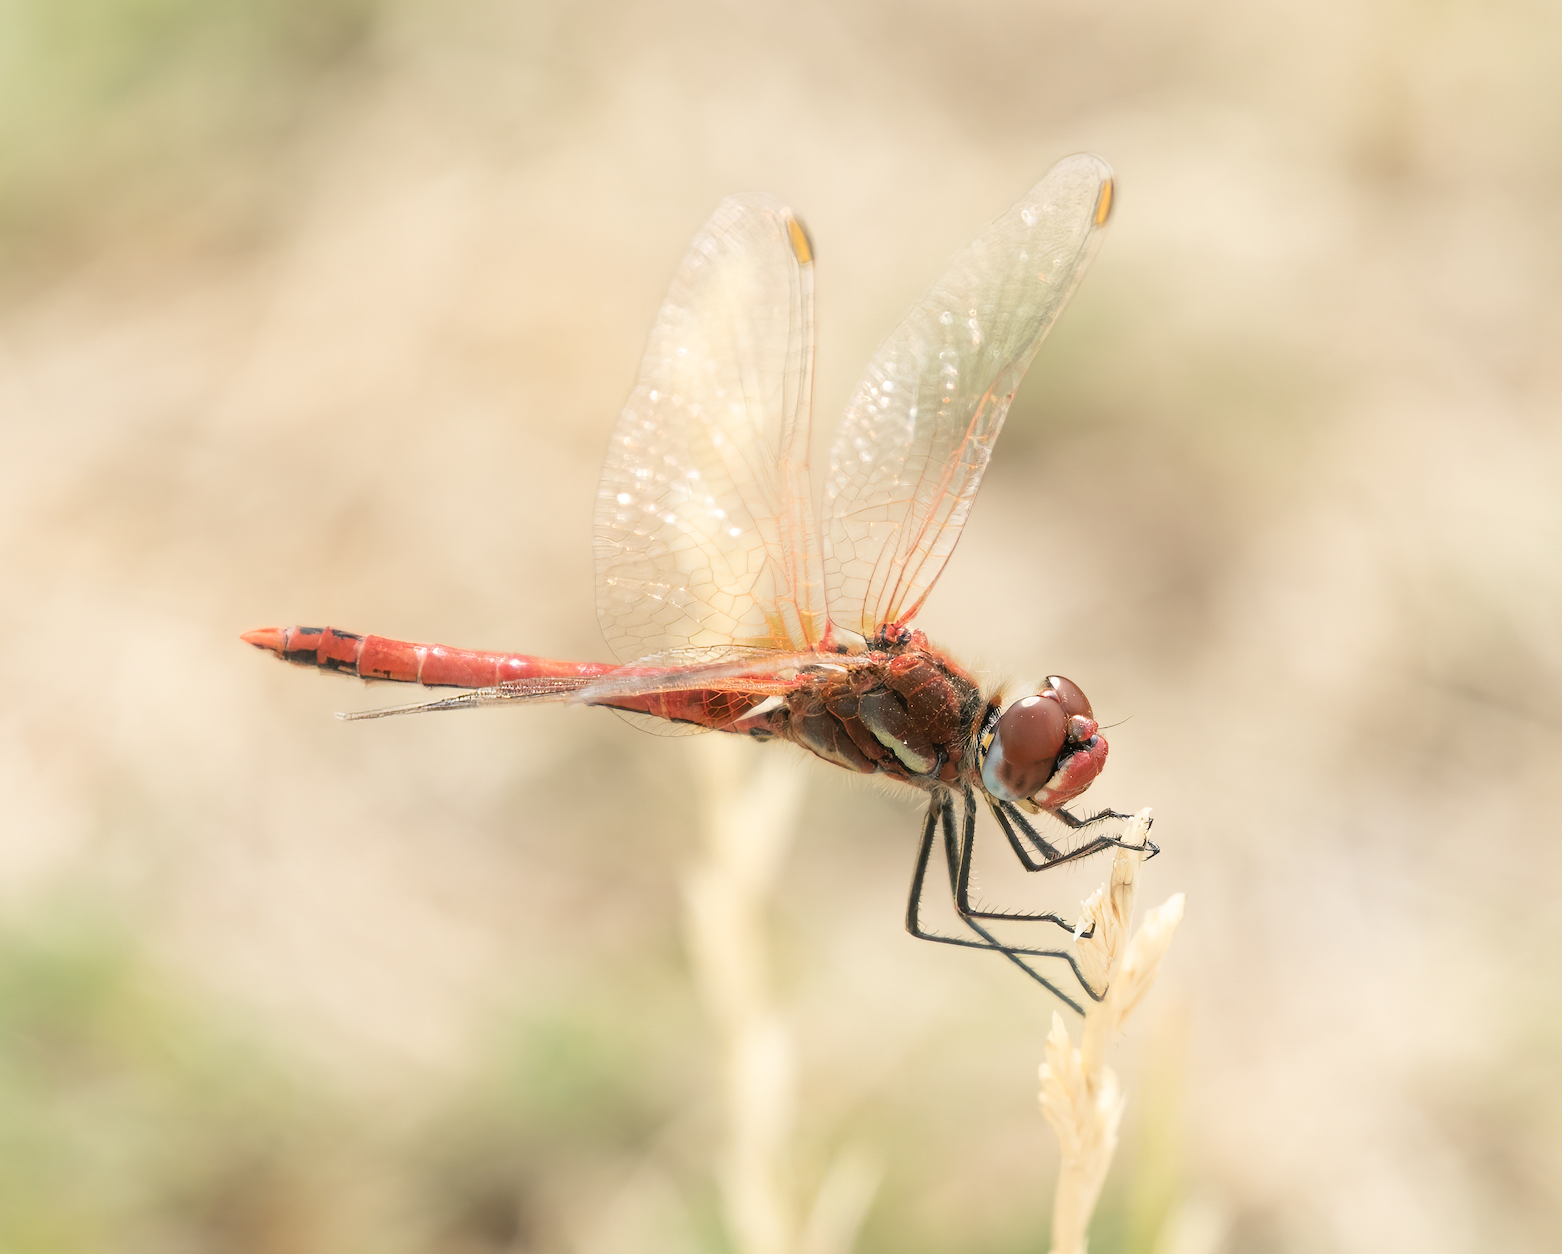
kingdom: Animalia
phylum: Arthropoda
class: Insecta
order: Odonata
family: Libellulidae
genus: Sympetrum
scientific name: Sympetrum fonscolombii
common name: Red-veined darter
